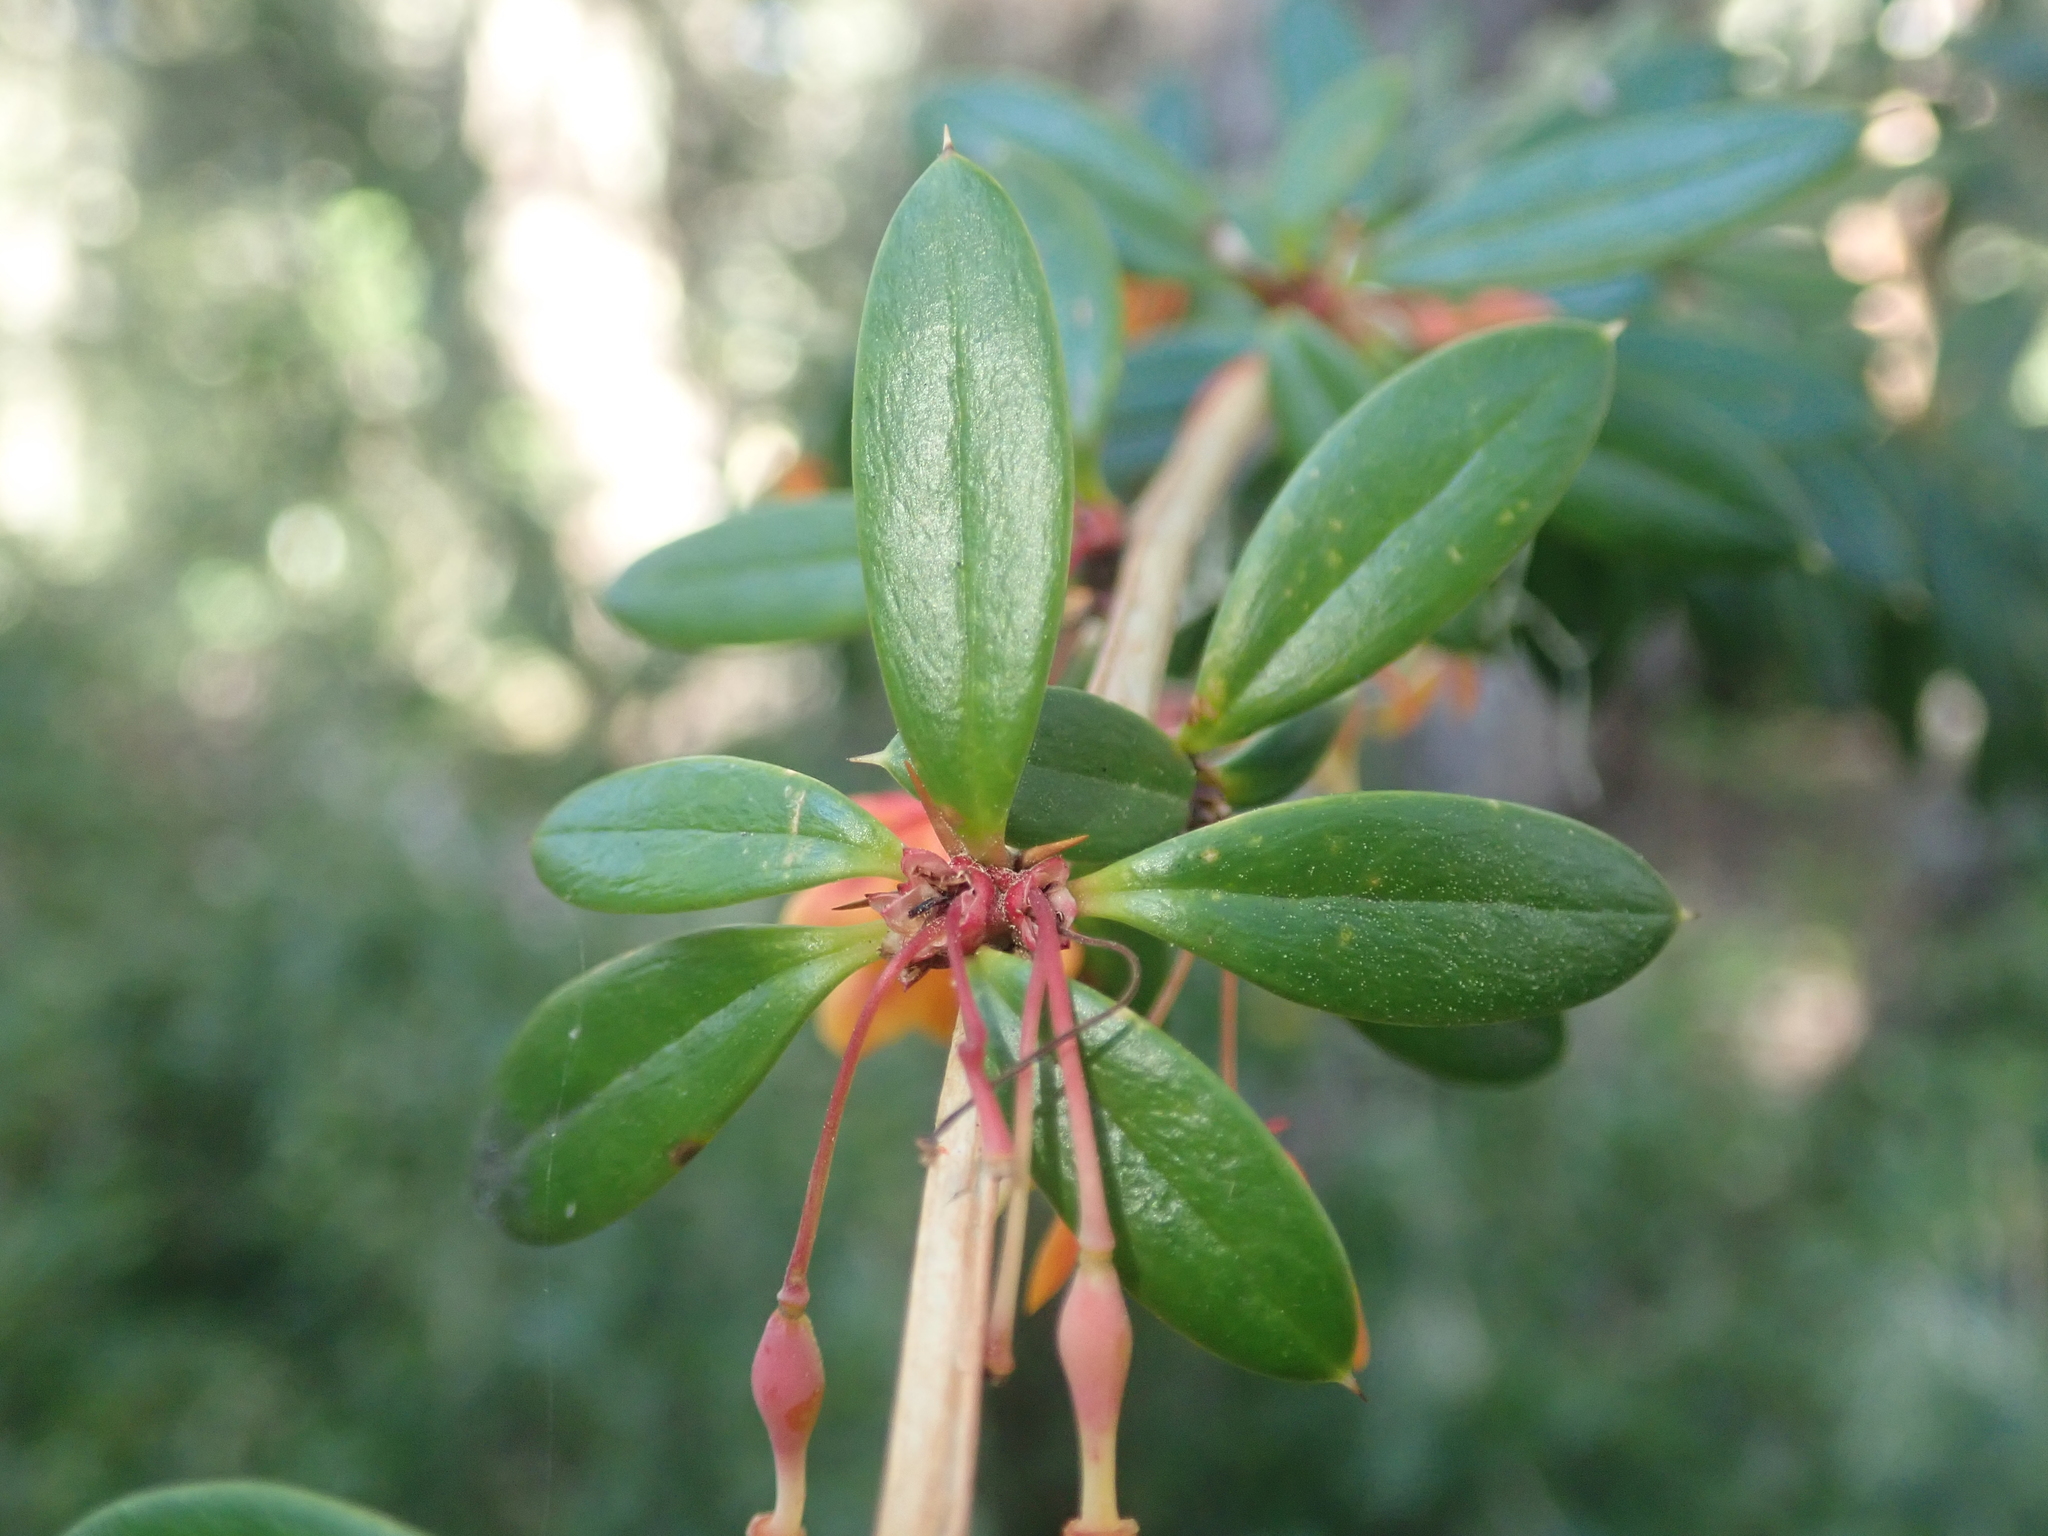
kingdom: Plantae
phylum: Tracheophyta
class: Magnoliopsida
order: Ranunculales
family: Berberidaceae
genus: Berberis
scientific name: Berberis trigona
